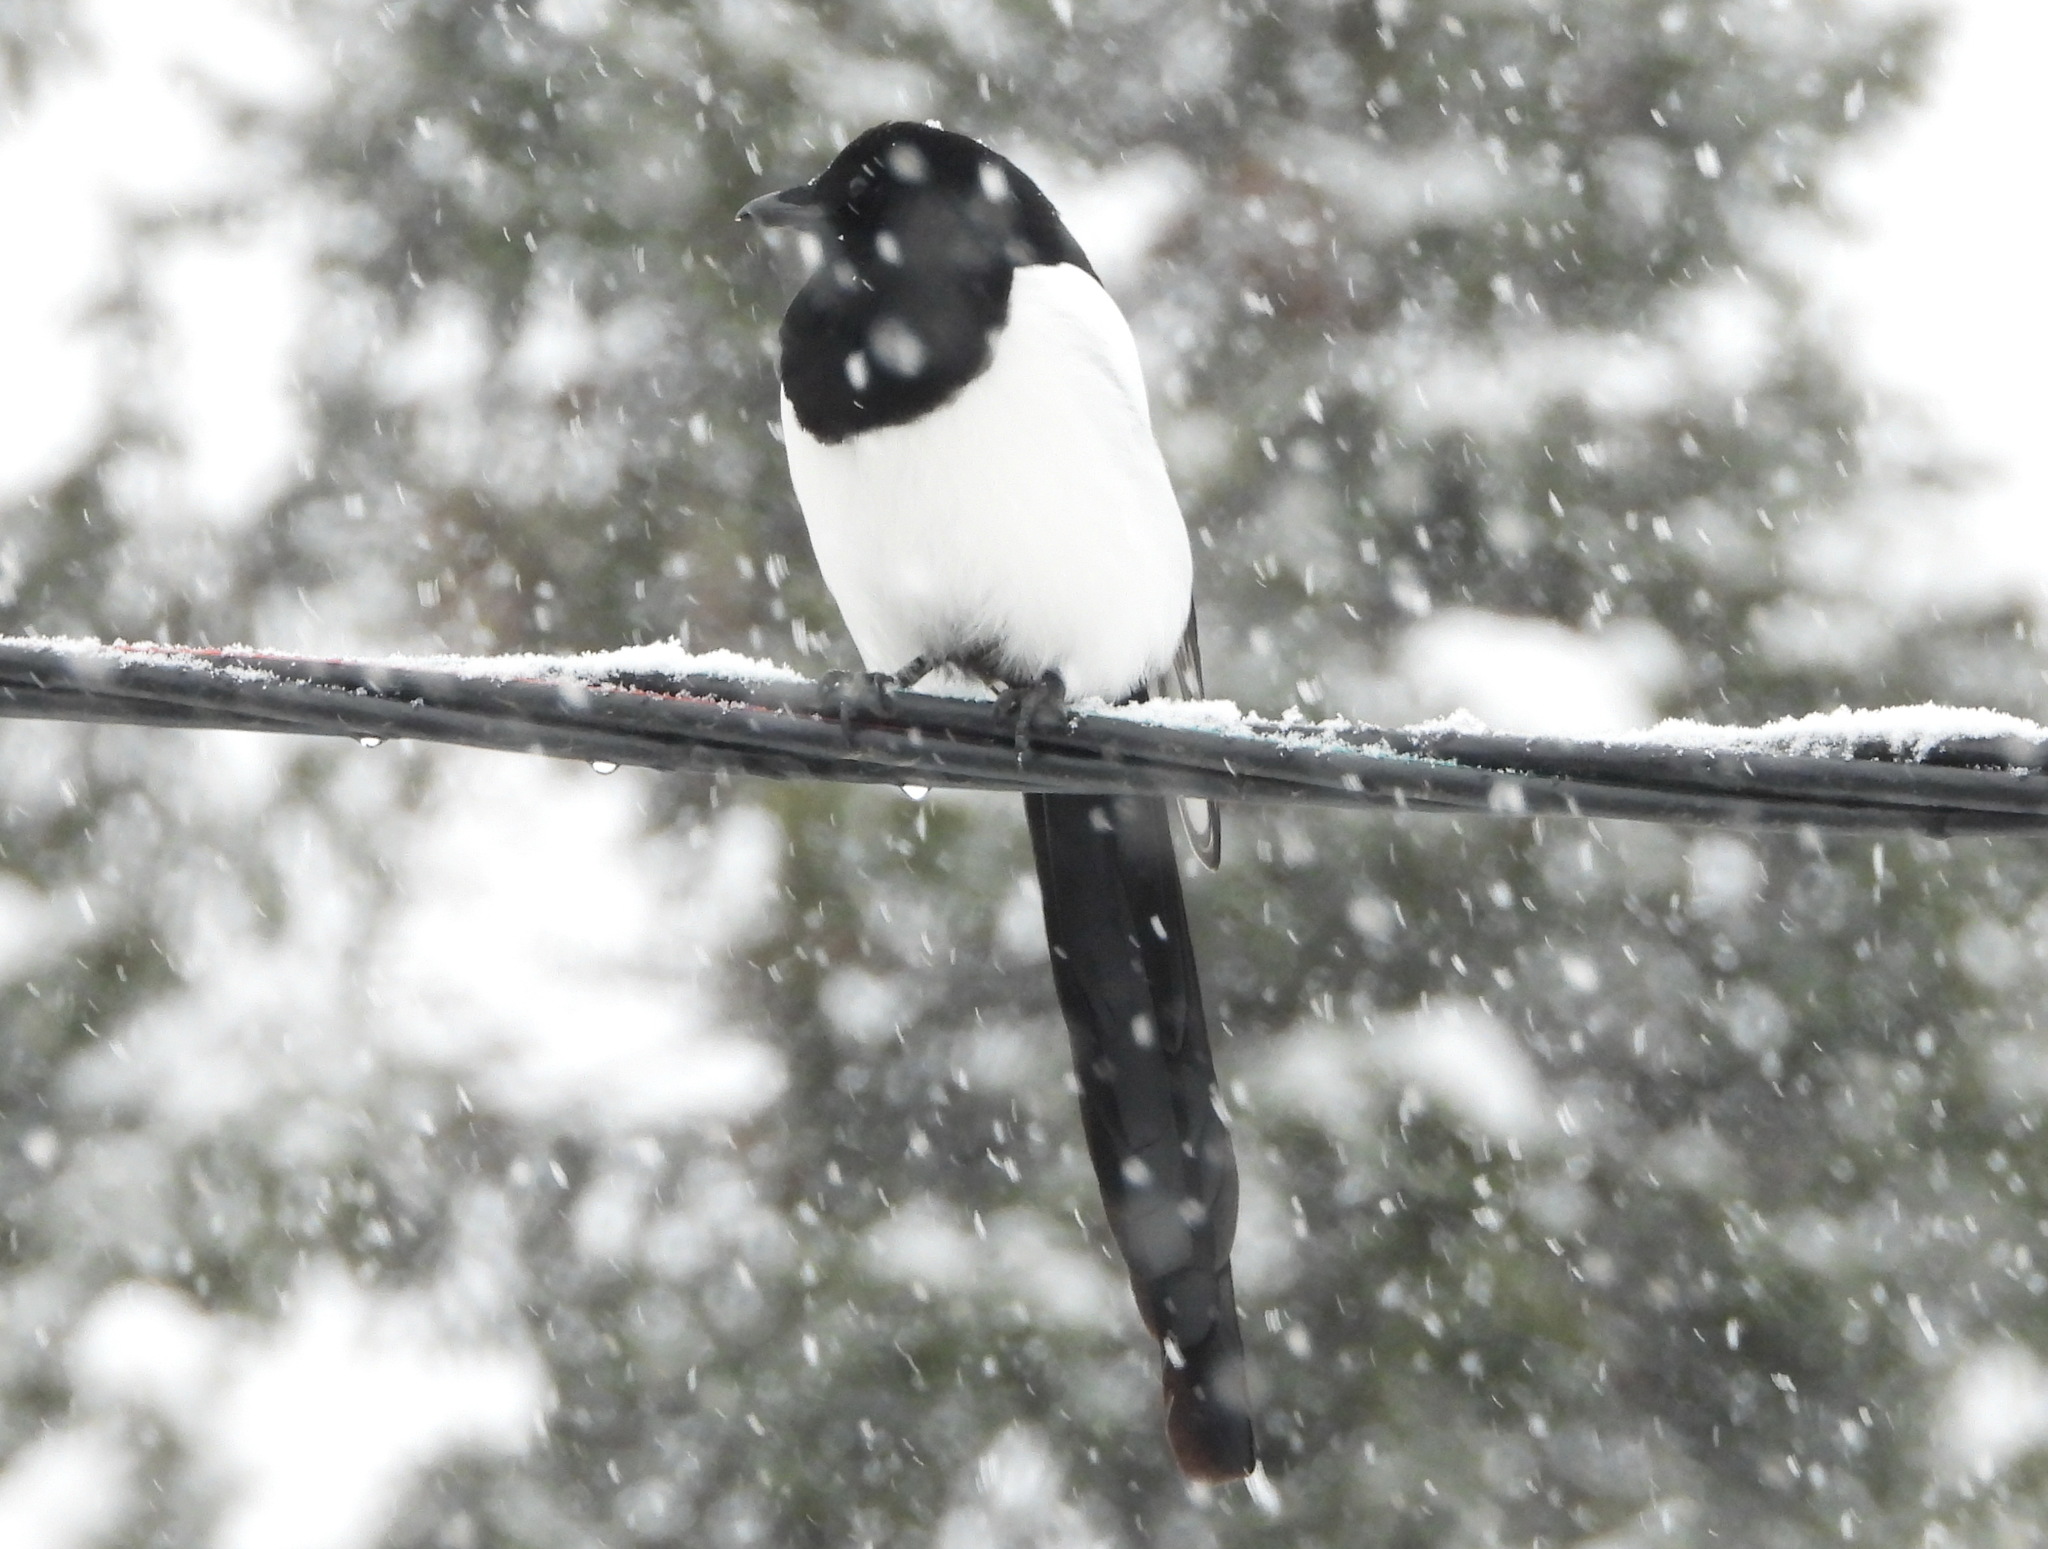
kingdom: Animalia
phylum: Chordata
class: Aves
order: Passeriformes
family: Corvidae
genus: Pica
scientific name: Pica pica
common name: Eurasian magpie
